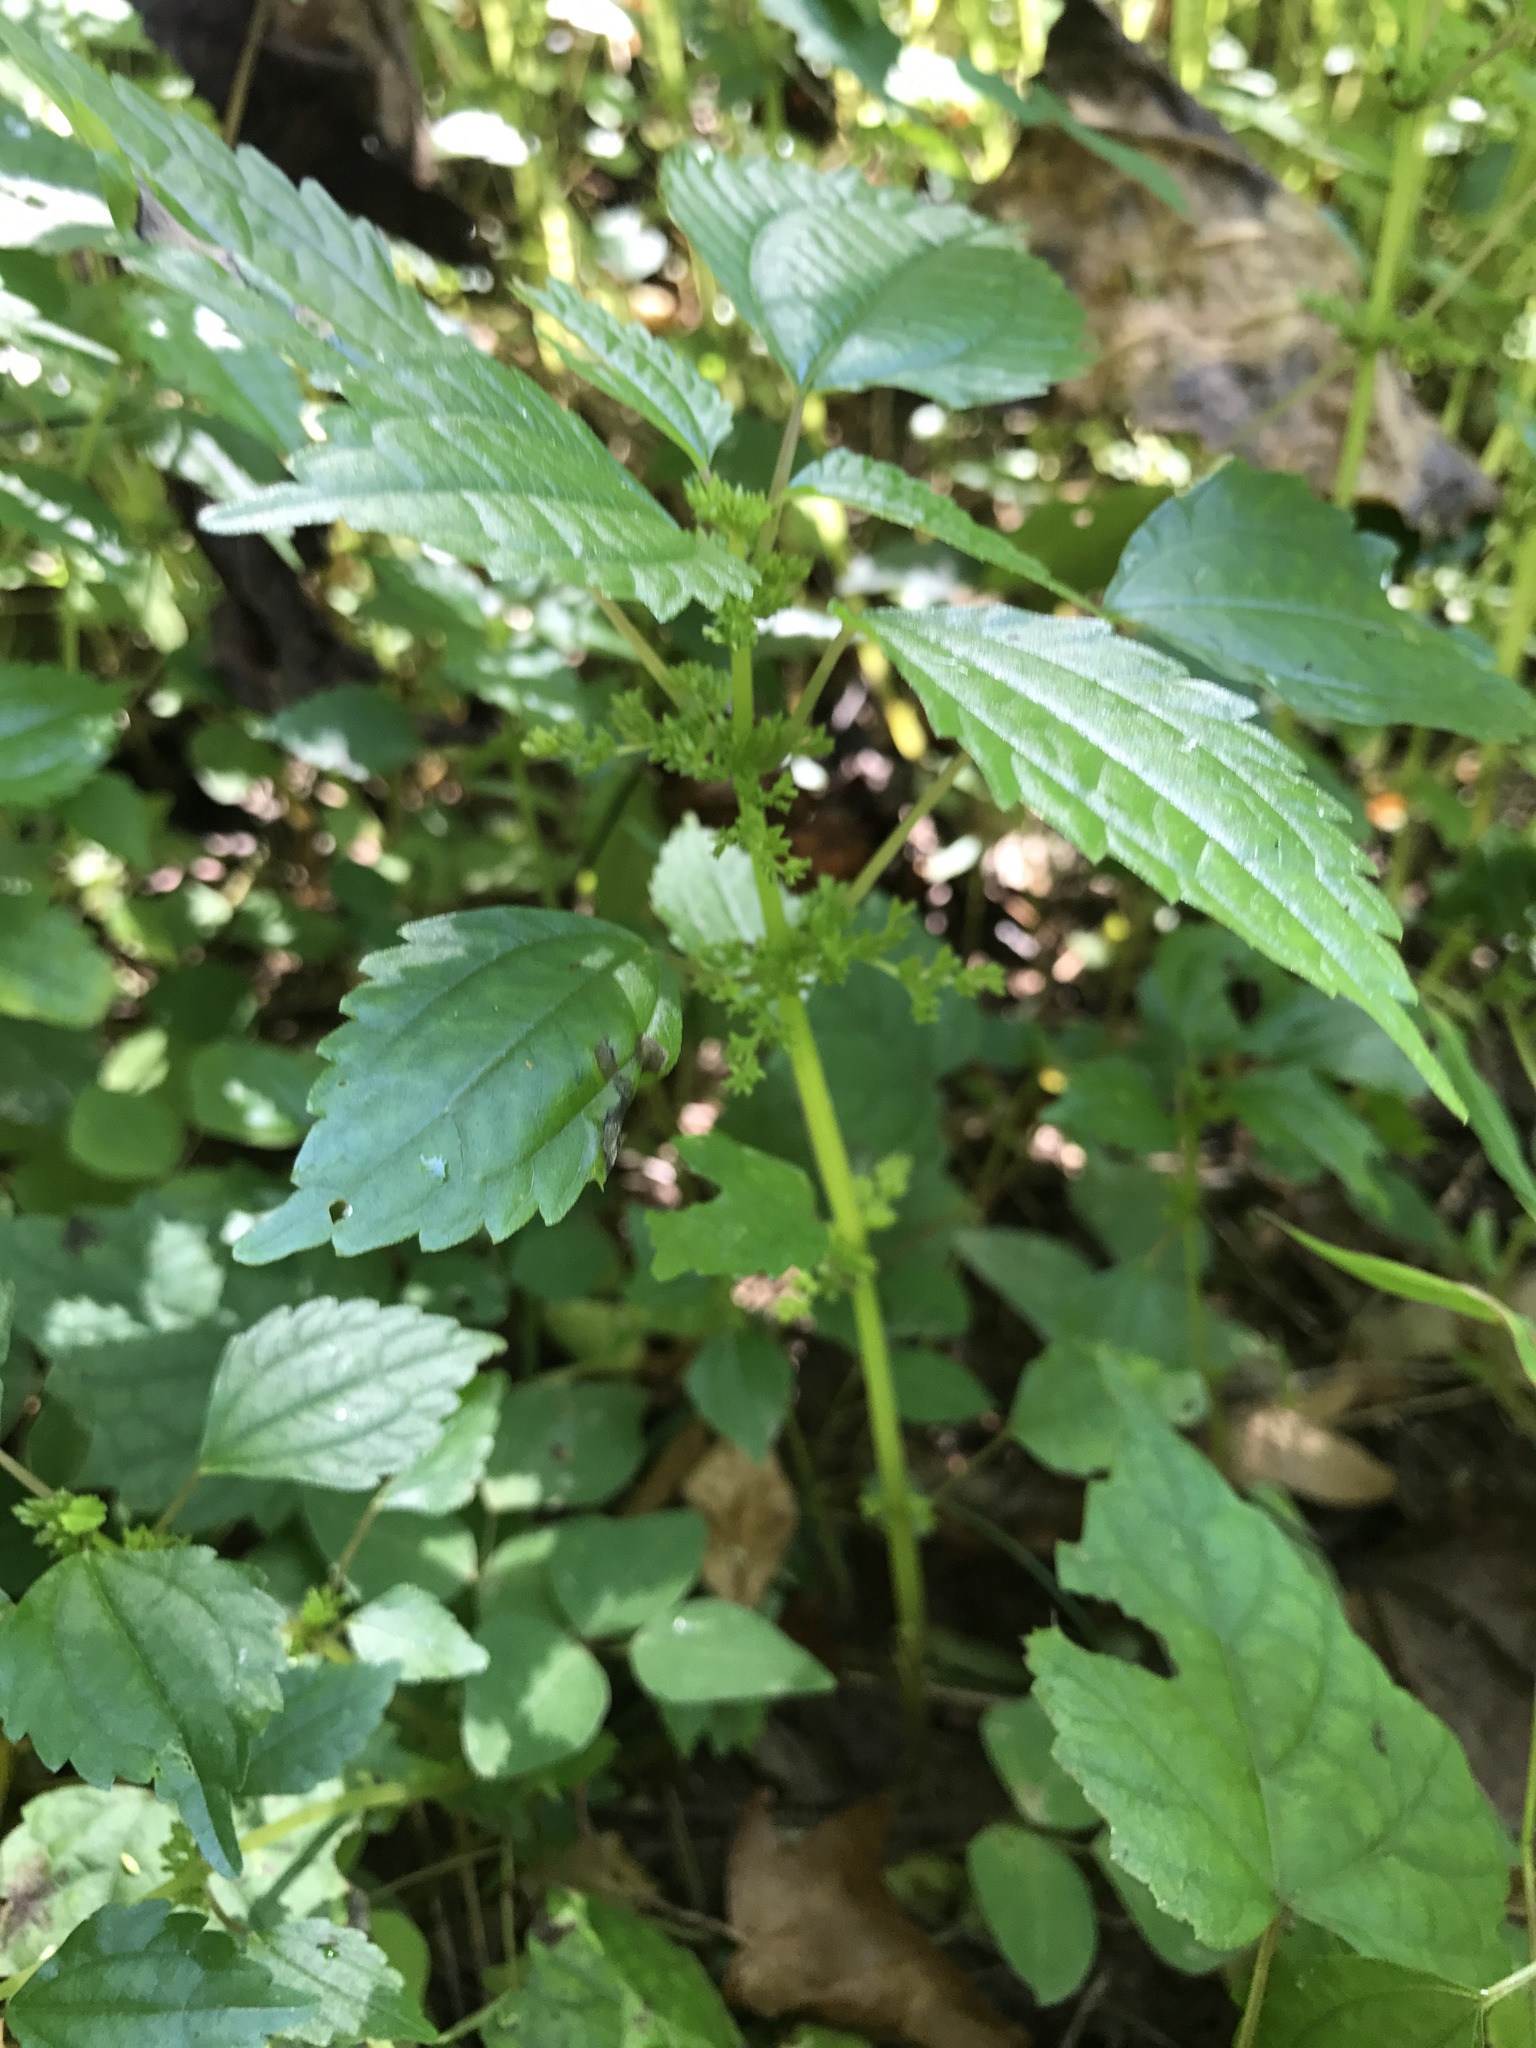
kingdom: Plantae
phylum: Tracheophyta
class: Magnoliopsida
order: Rosales
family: Urticaceae
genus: Pilea
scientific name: Pilea pumila
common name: Clearweed
